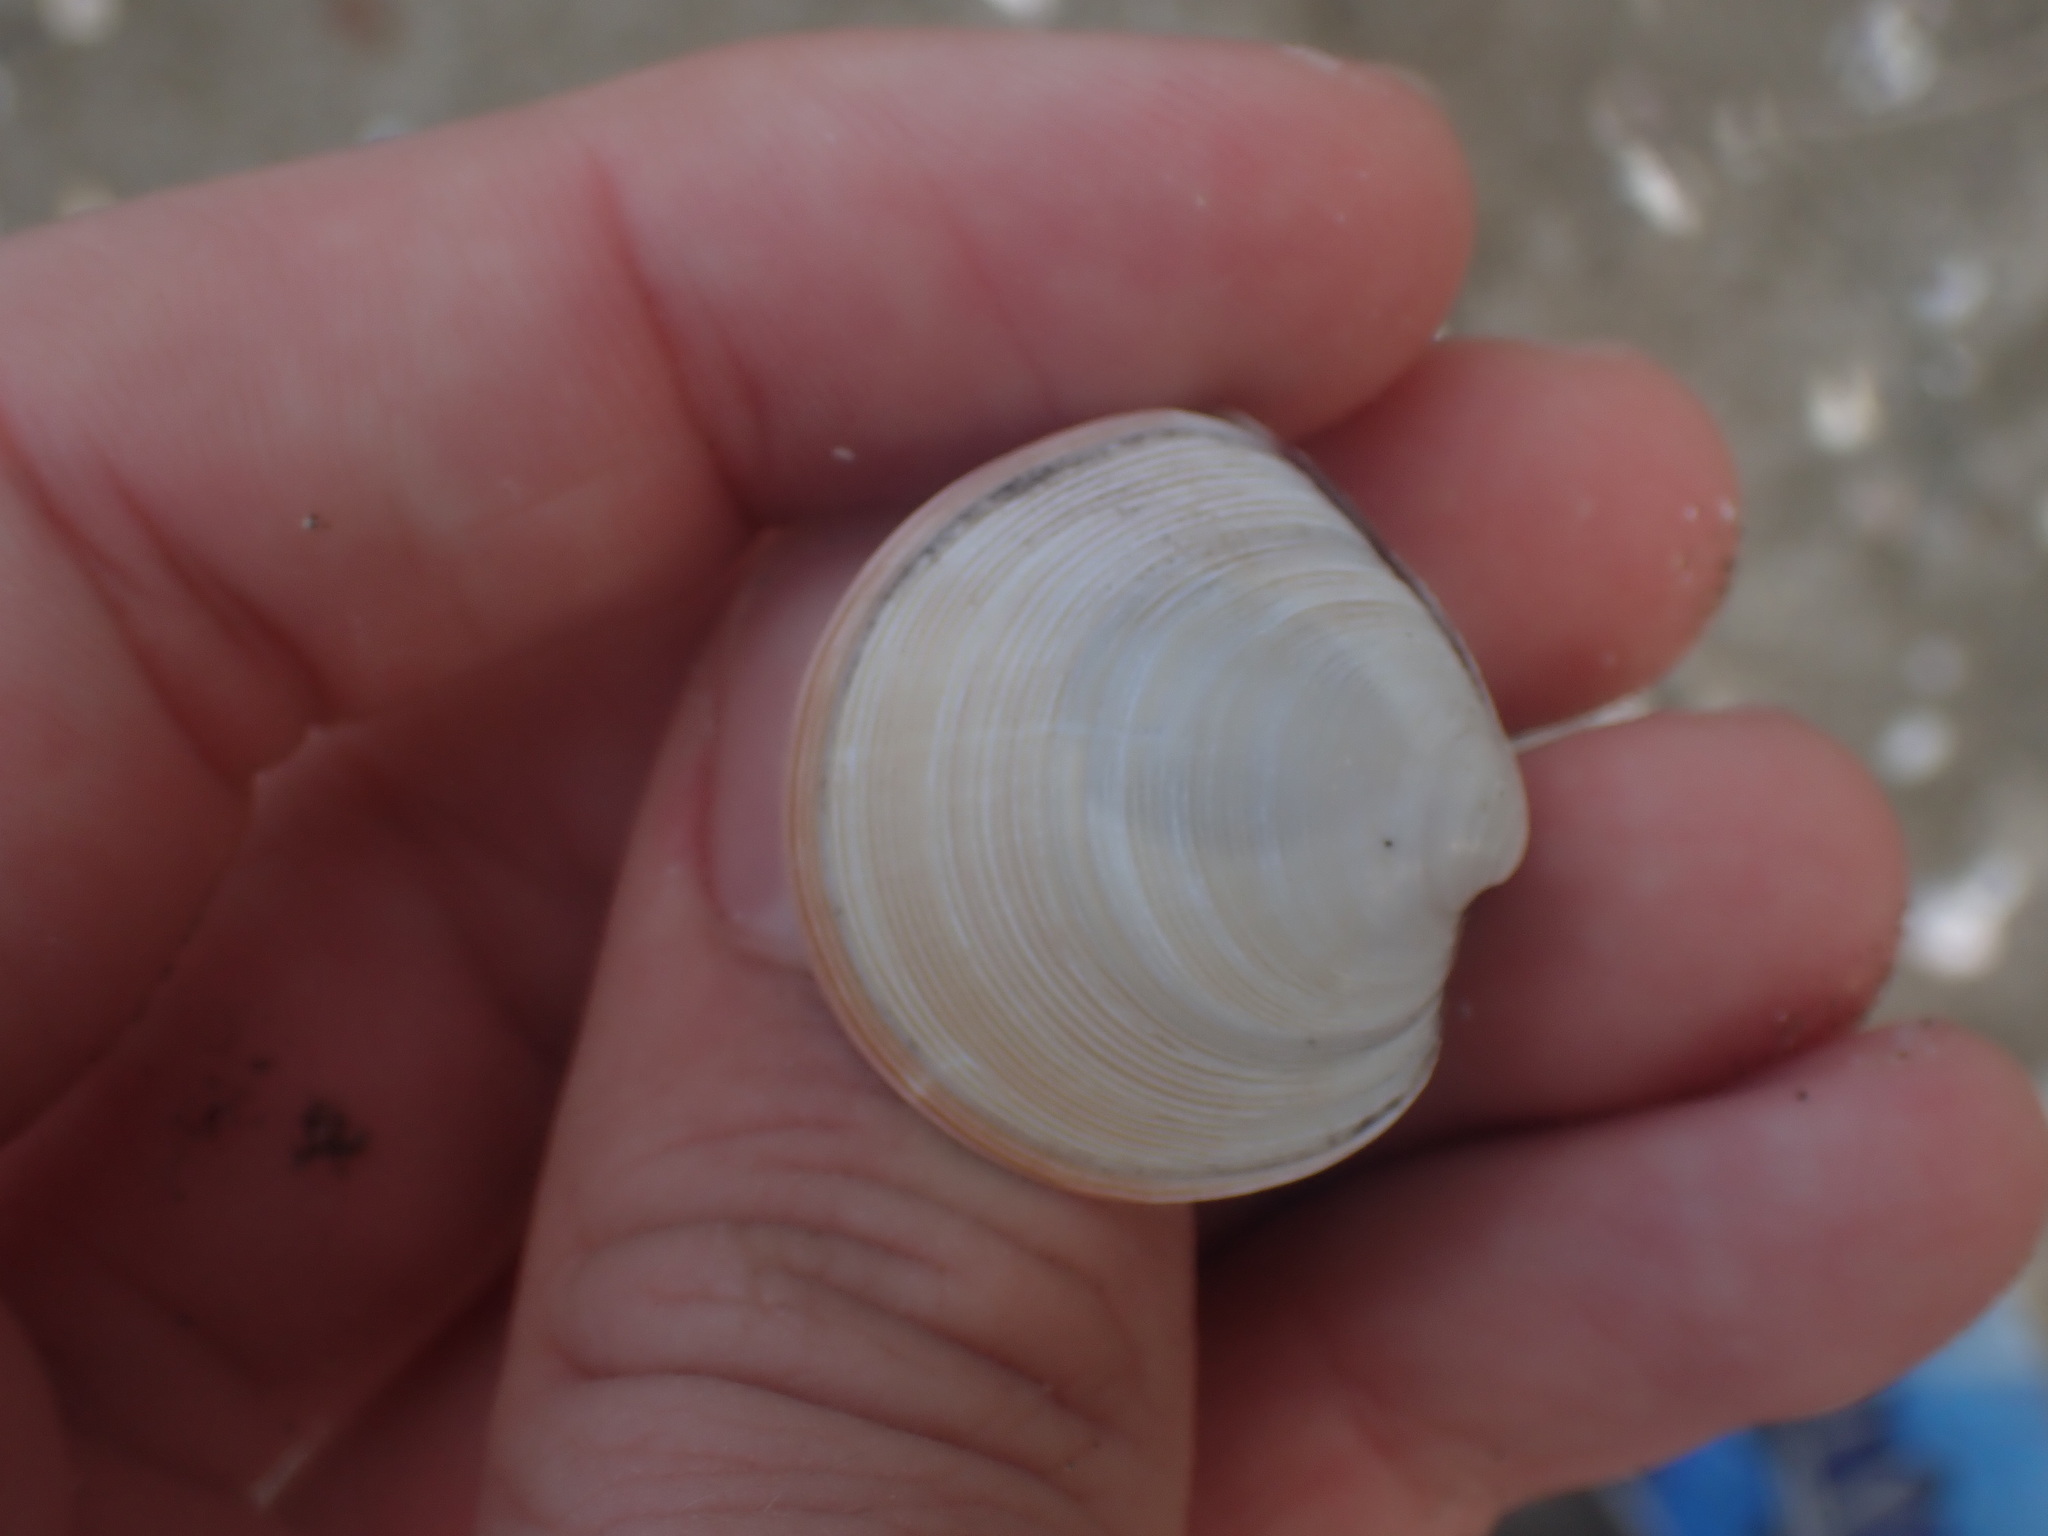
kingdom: Animalia
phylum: Mollusca
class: Bivalvia
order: Venerida
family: Veneridae
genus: Dosinia
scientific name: Dosinia subrosea
